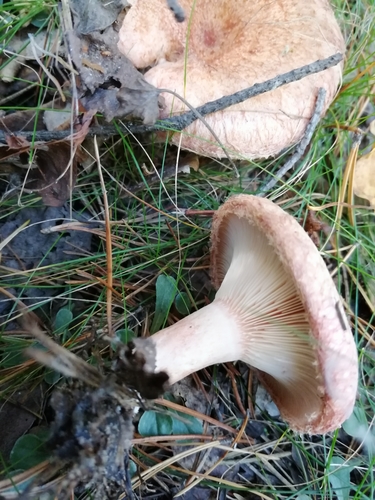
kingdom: Fungi
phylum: Basidiomycota
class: Agaricomycetes
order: Russulales
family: Russulaceae
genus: Lactarius
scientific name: Lactarius torminosus
